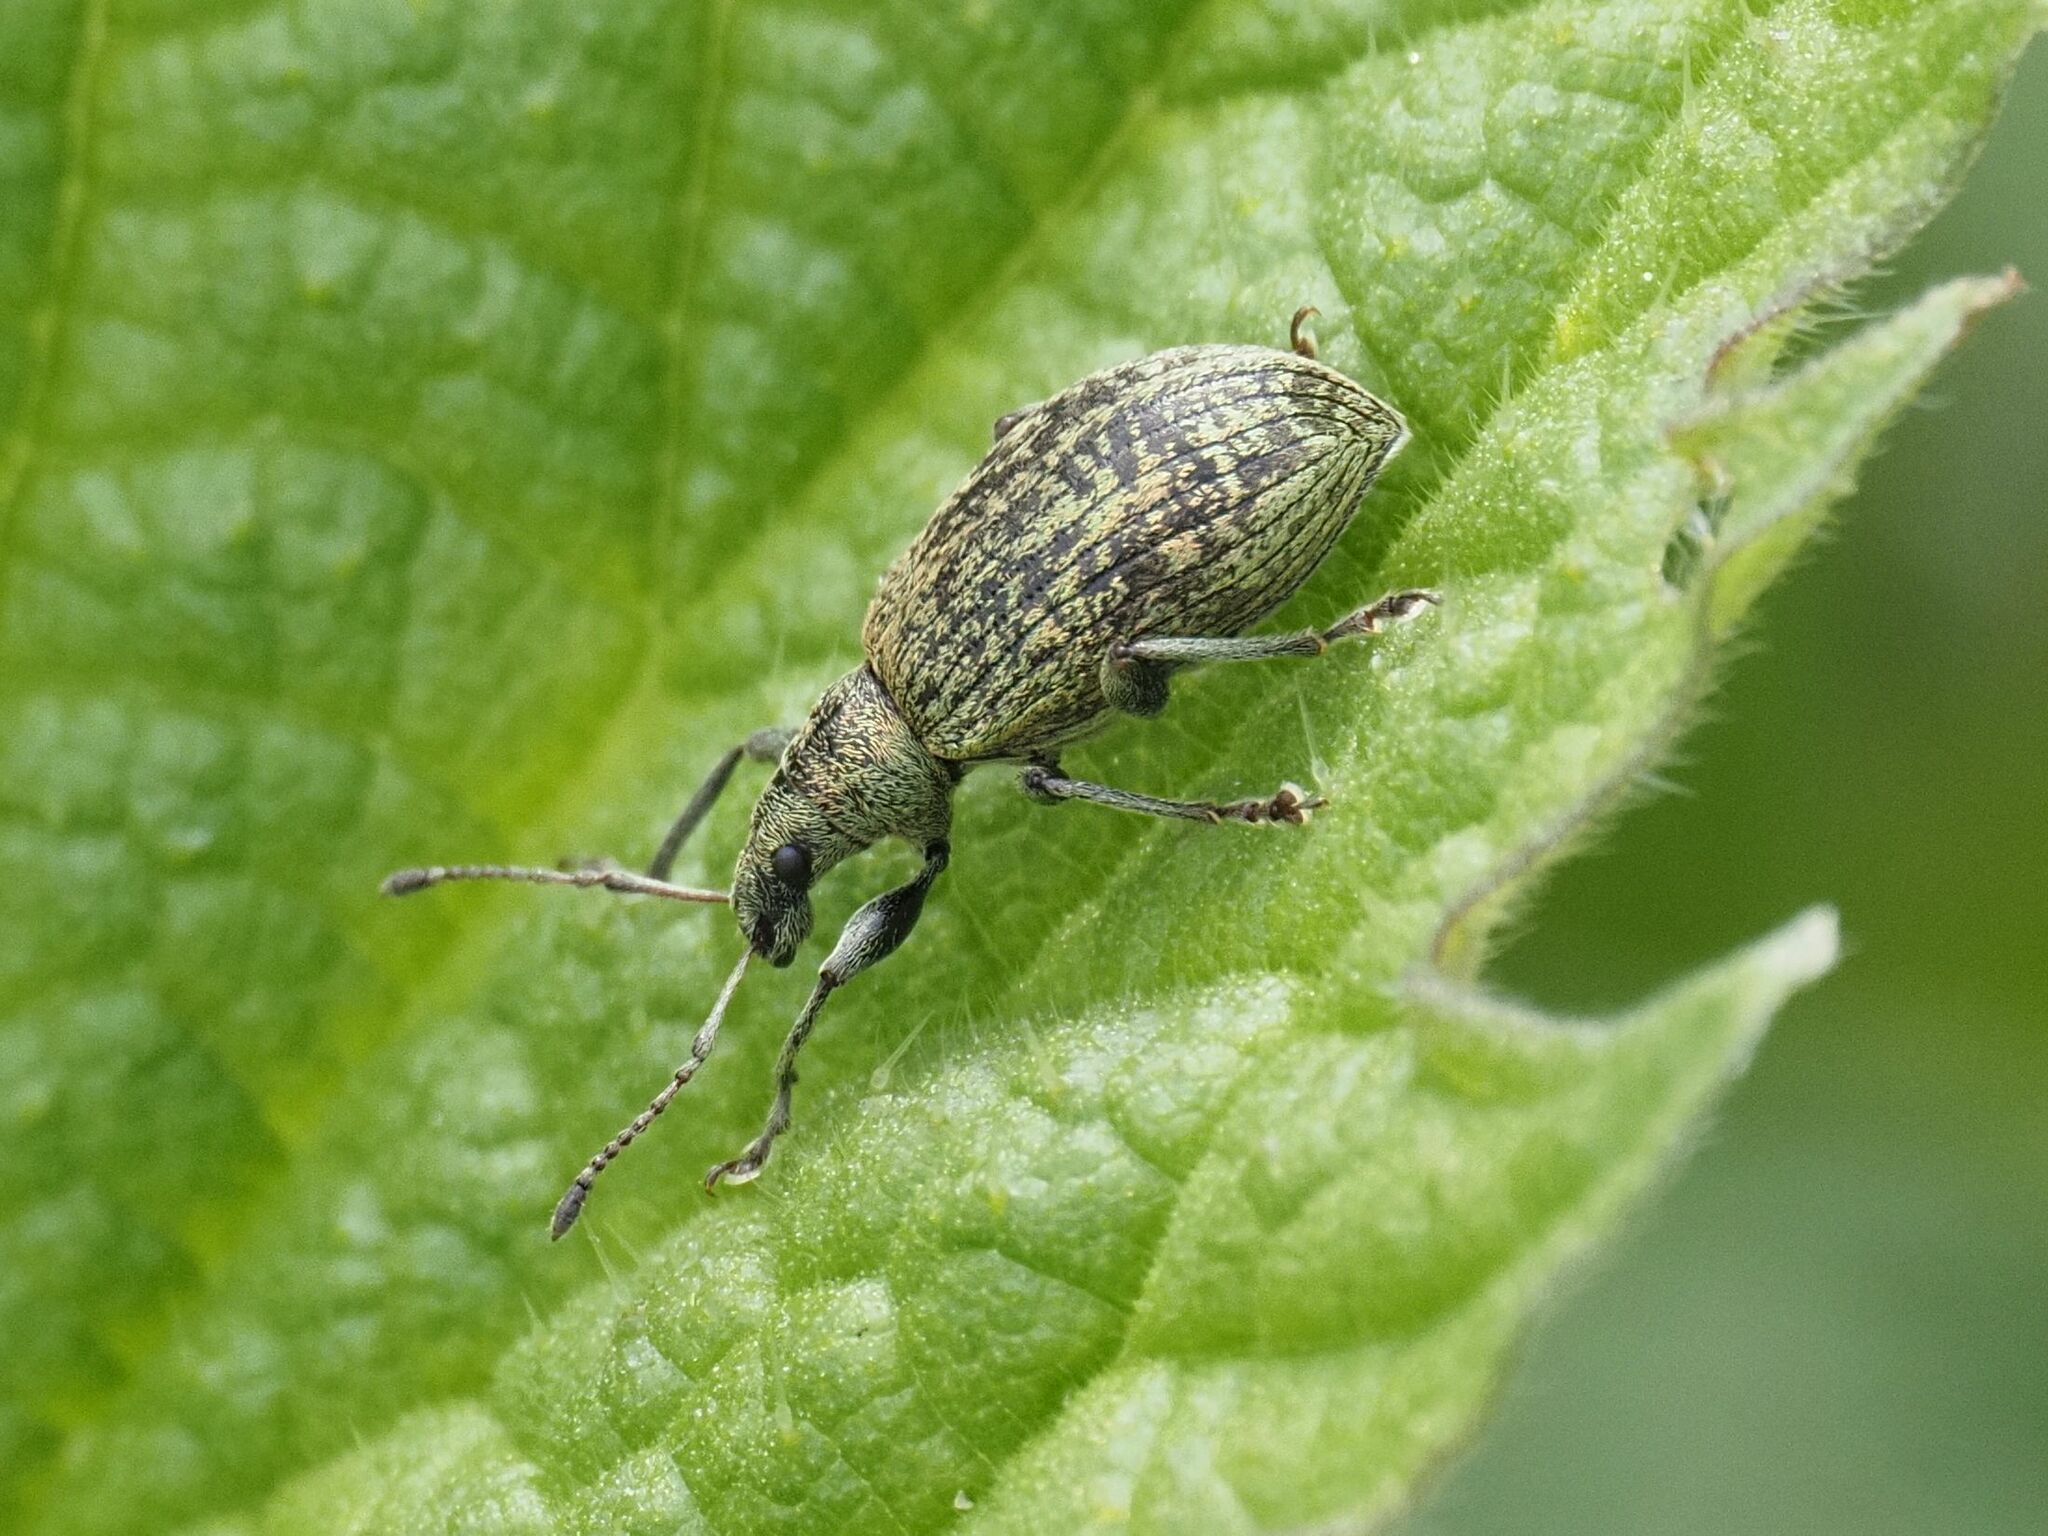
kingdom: Animalia
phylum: Arthropoda
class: Insecta
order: Coleoptera
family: Curculionidae
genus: Phyllobius
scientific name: Phyllobius pomaceus
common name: Green nettle weevil
